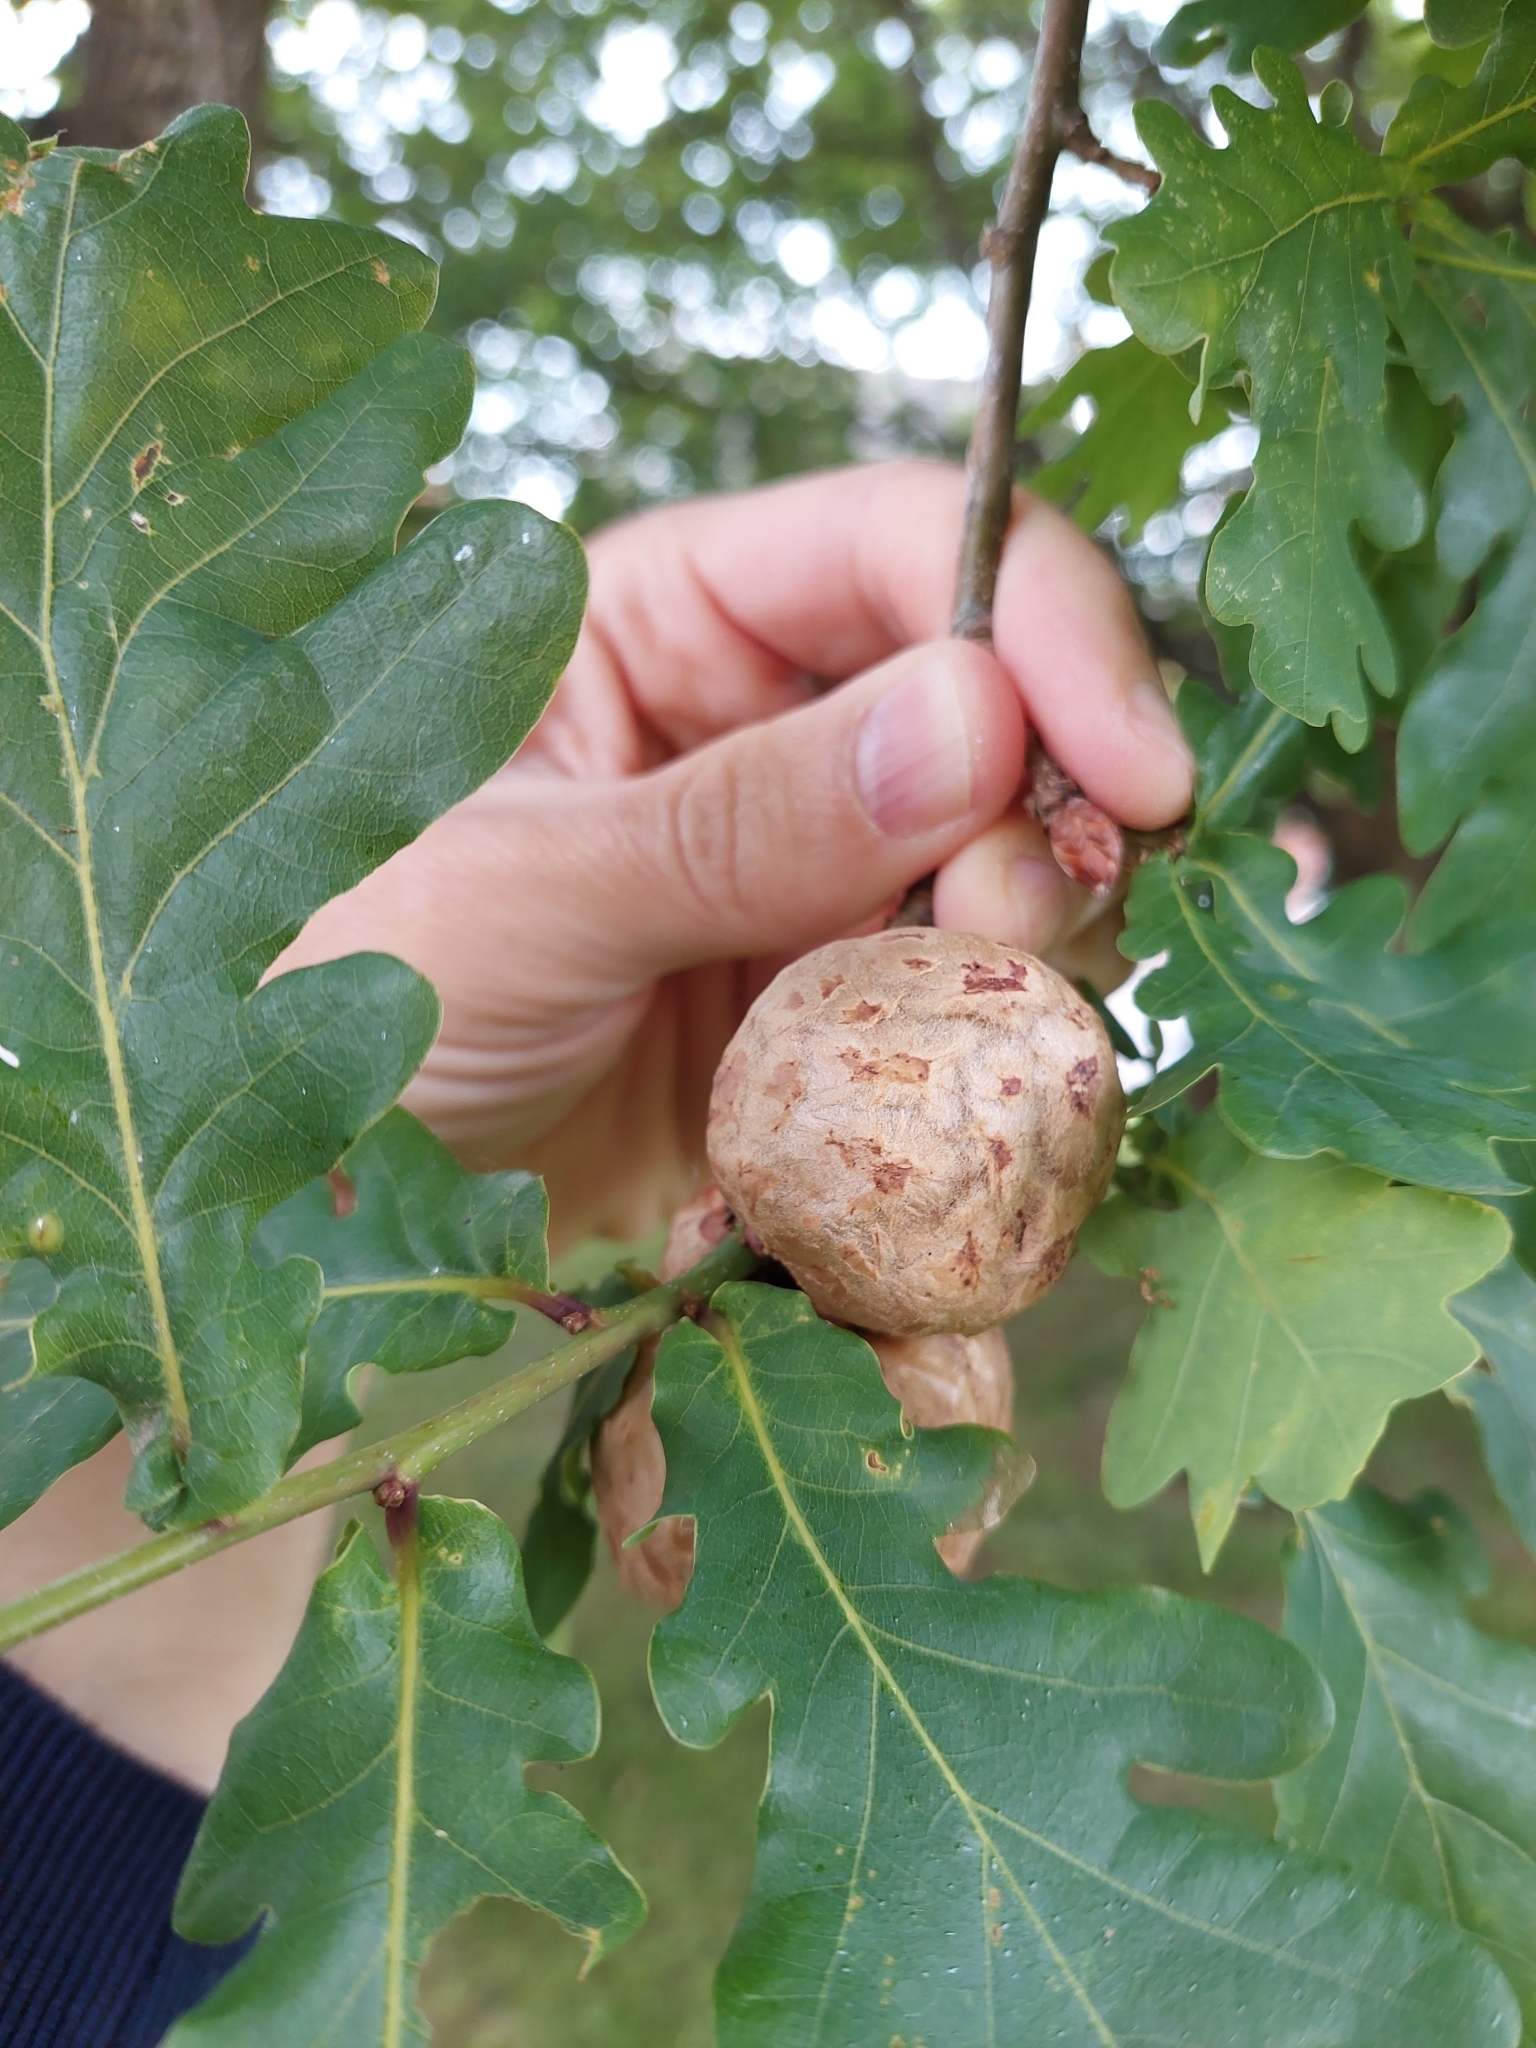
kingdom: Animalia
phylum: Arthropoda
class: Insecta
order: Hymenoptera
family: Cynipidae
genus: Biorhiza
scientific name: Biorhiza pallida
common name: Oak apple
